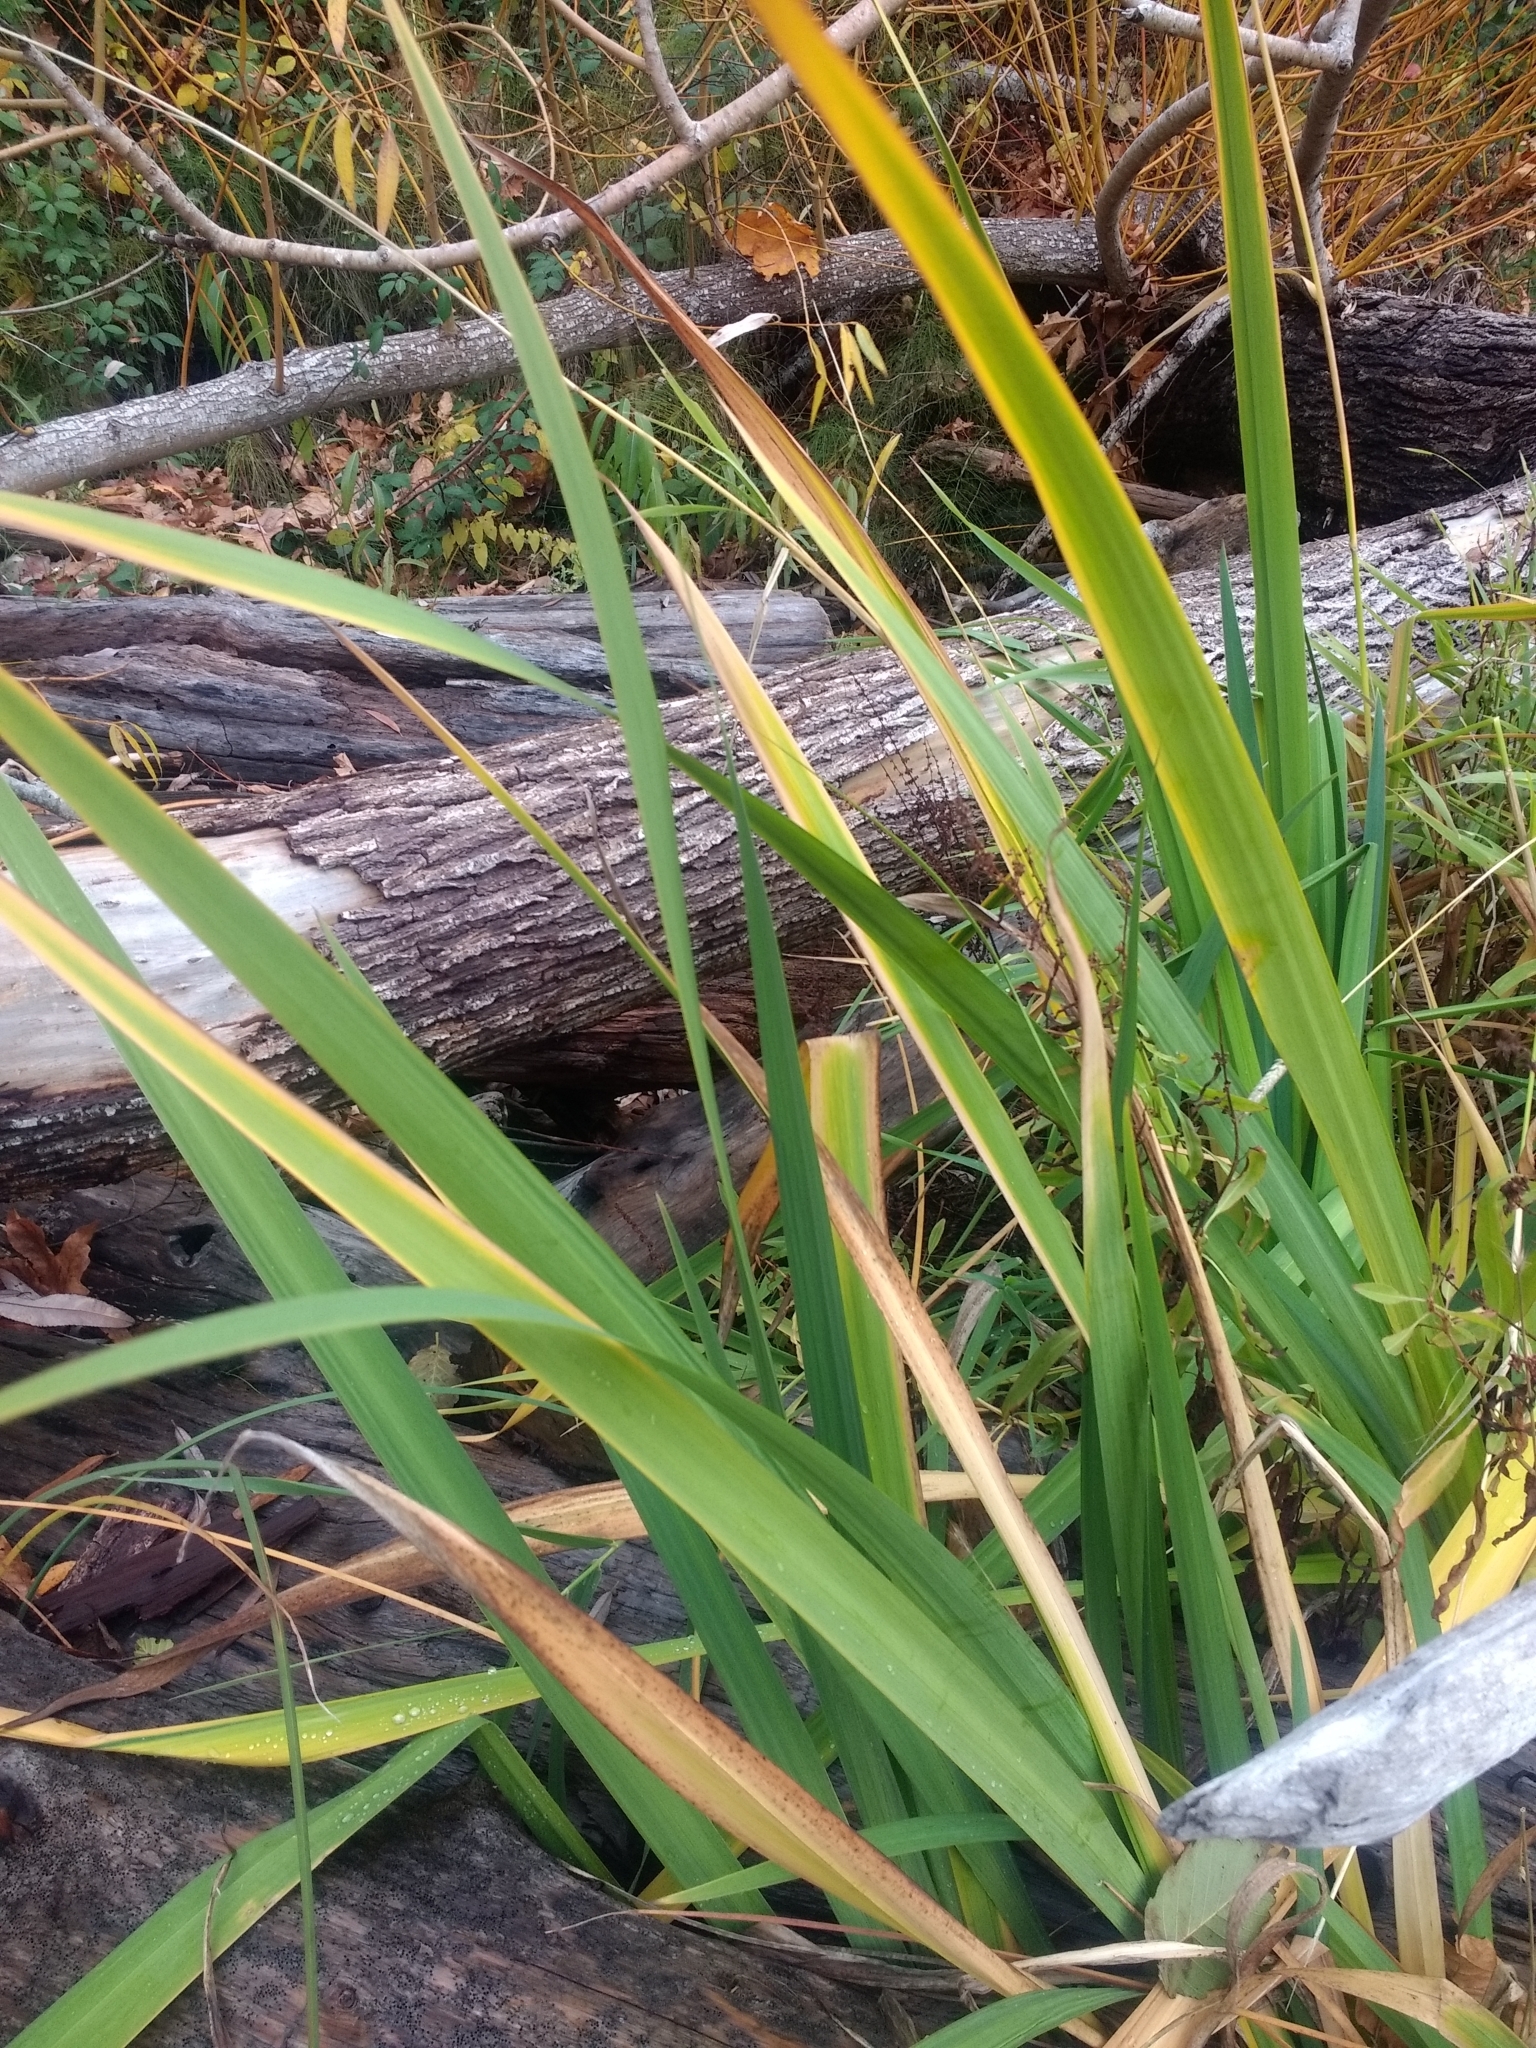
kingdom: Plantae
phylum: Tracheophyta
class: Liliopsida
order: Asparagales
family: Iridaceae
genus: Iris
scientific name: Iris pseudacorus
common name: Yellow flag
